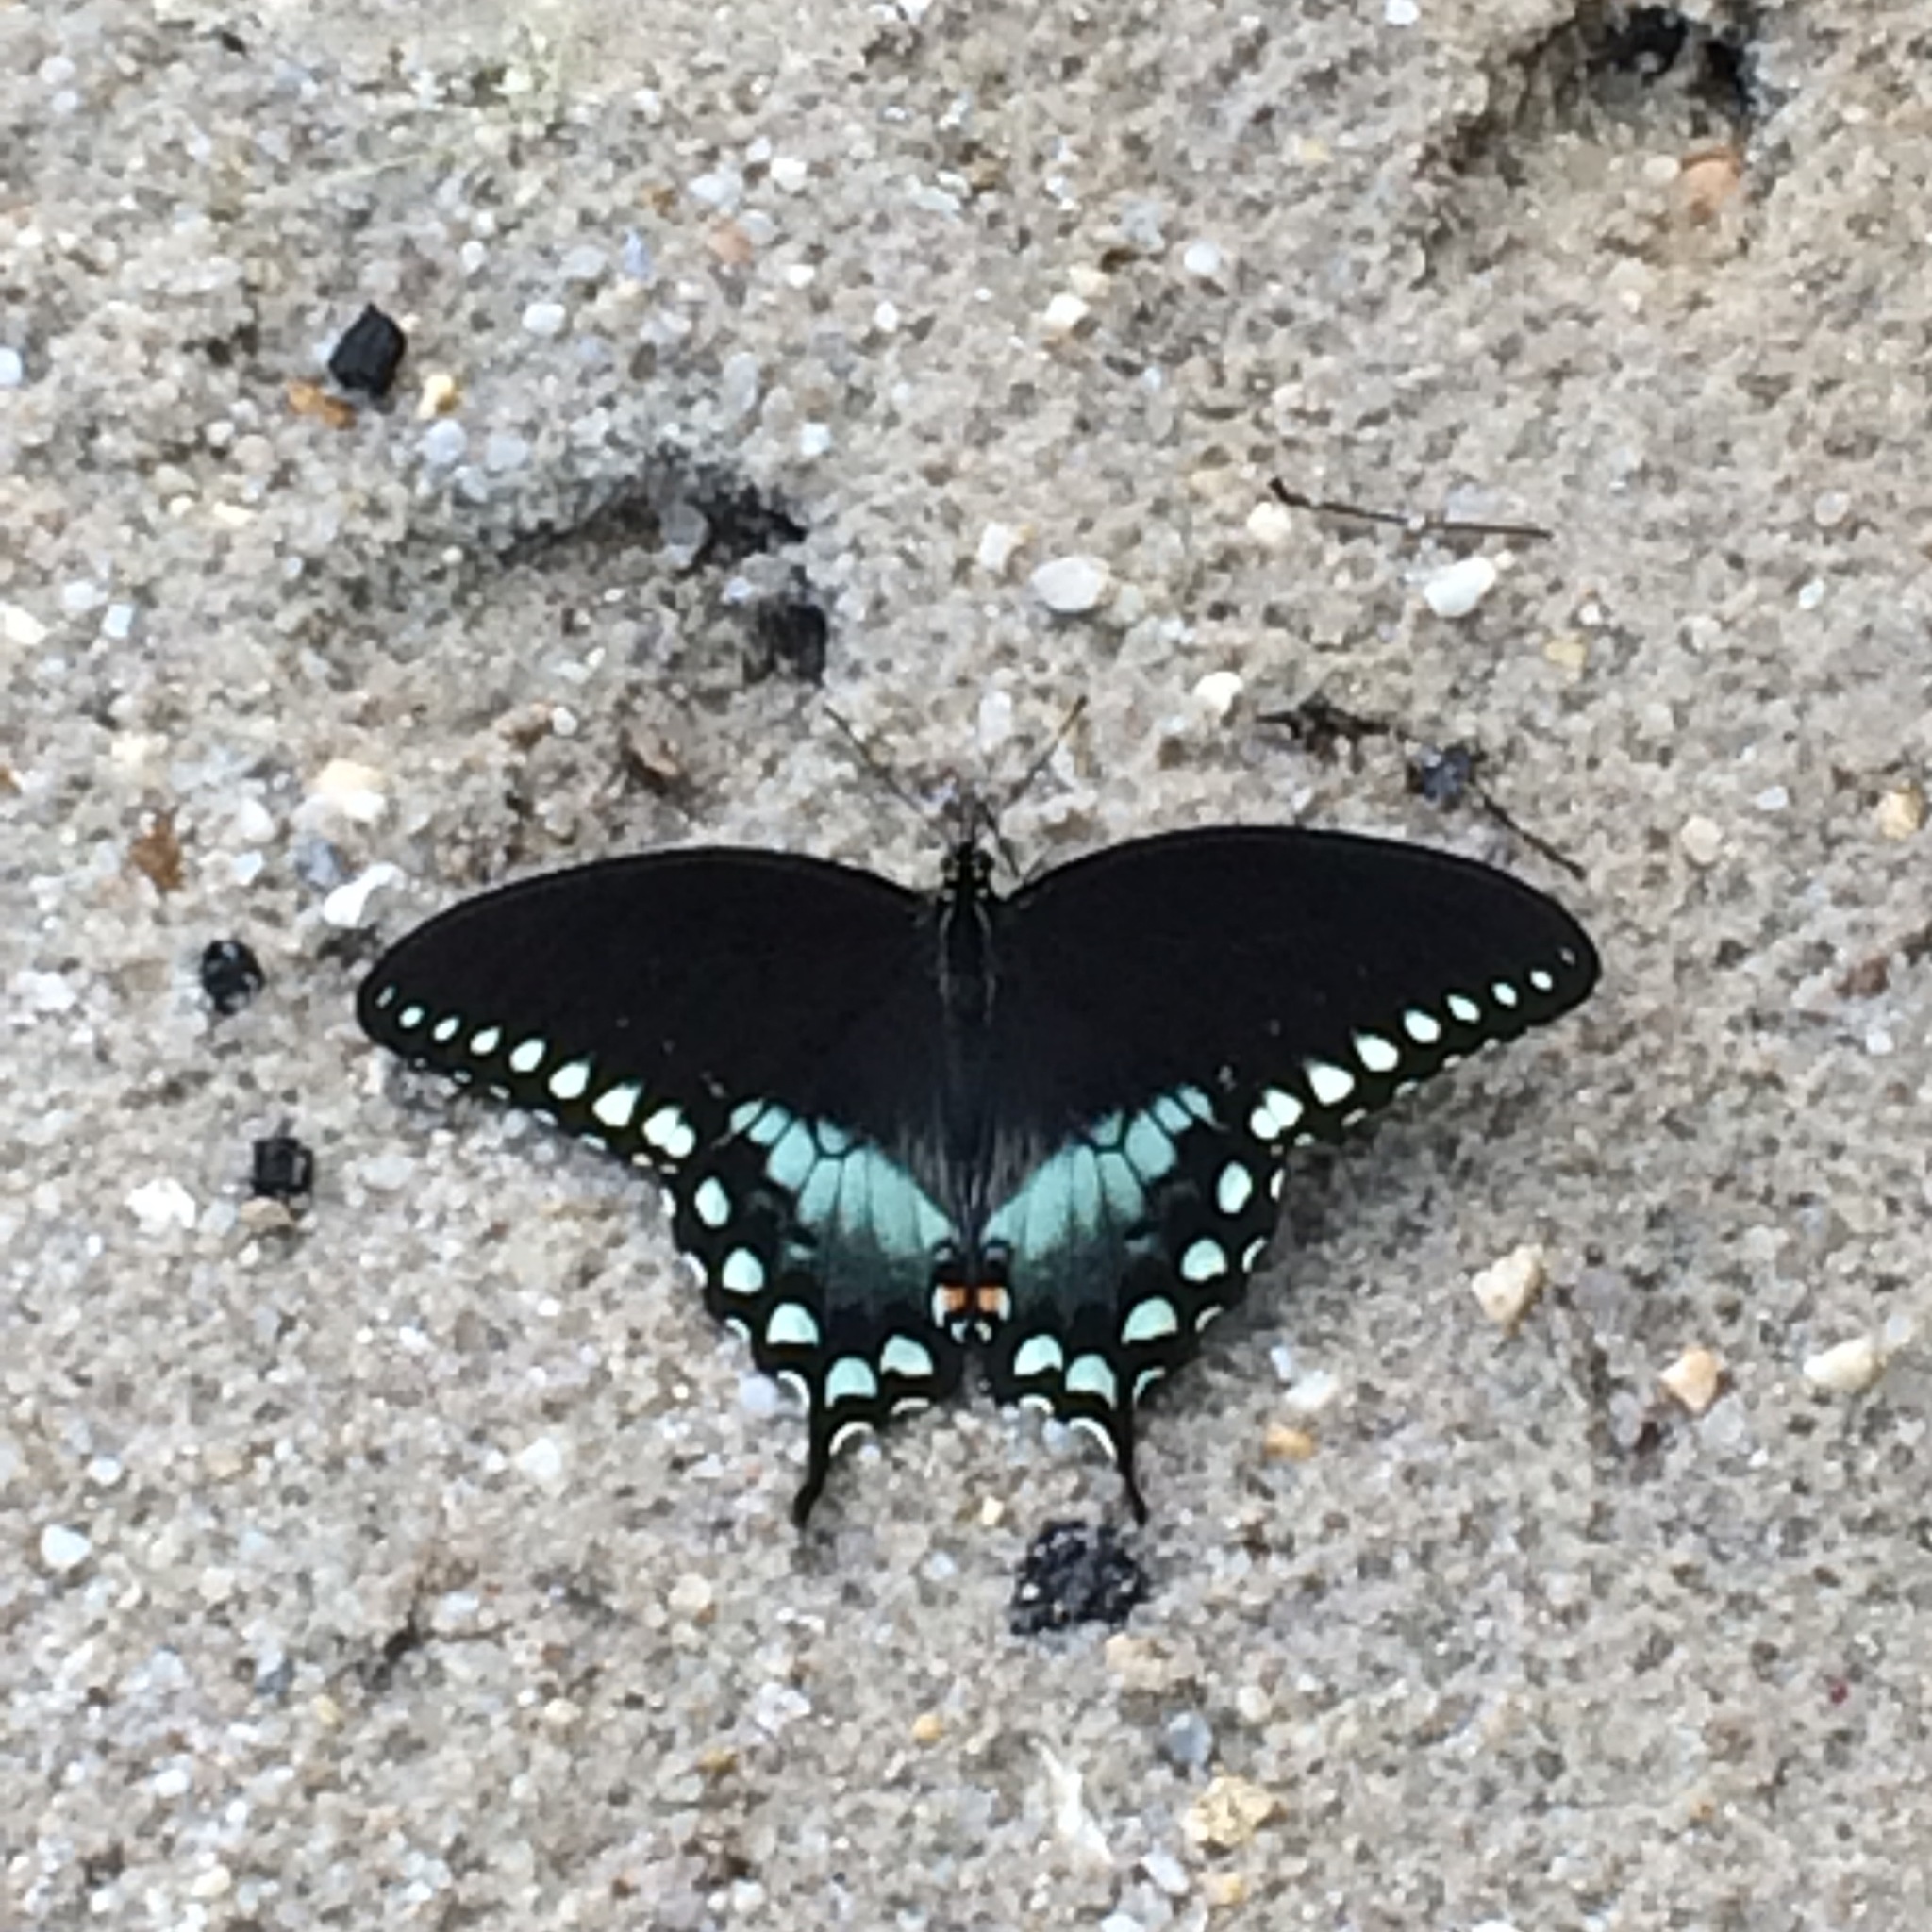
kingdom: Animalia
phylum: Arthropoda
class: Insecta
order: Lepidoptera
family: Papilionidae
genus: Papilio
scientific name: Papilio troilus
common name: Spicebush swallowtail
